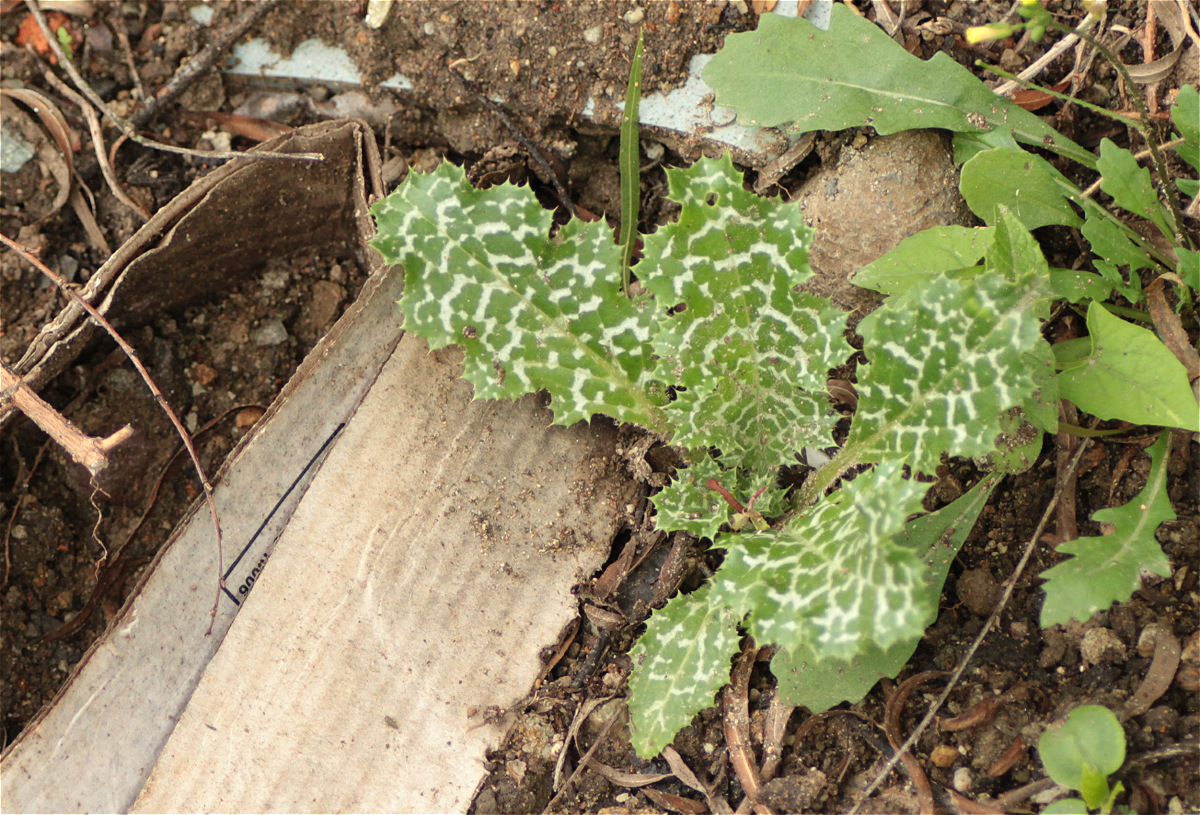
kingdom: Plantae
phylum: Tracheophyta
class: Magnoliopsida
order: Asterales
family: Asteraceae
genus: Silybum
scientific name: Silybum marianum
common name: Milk thistle
